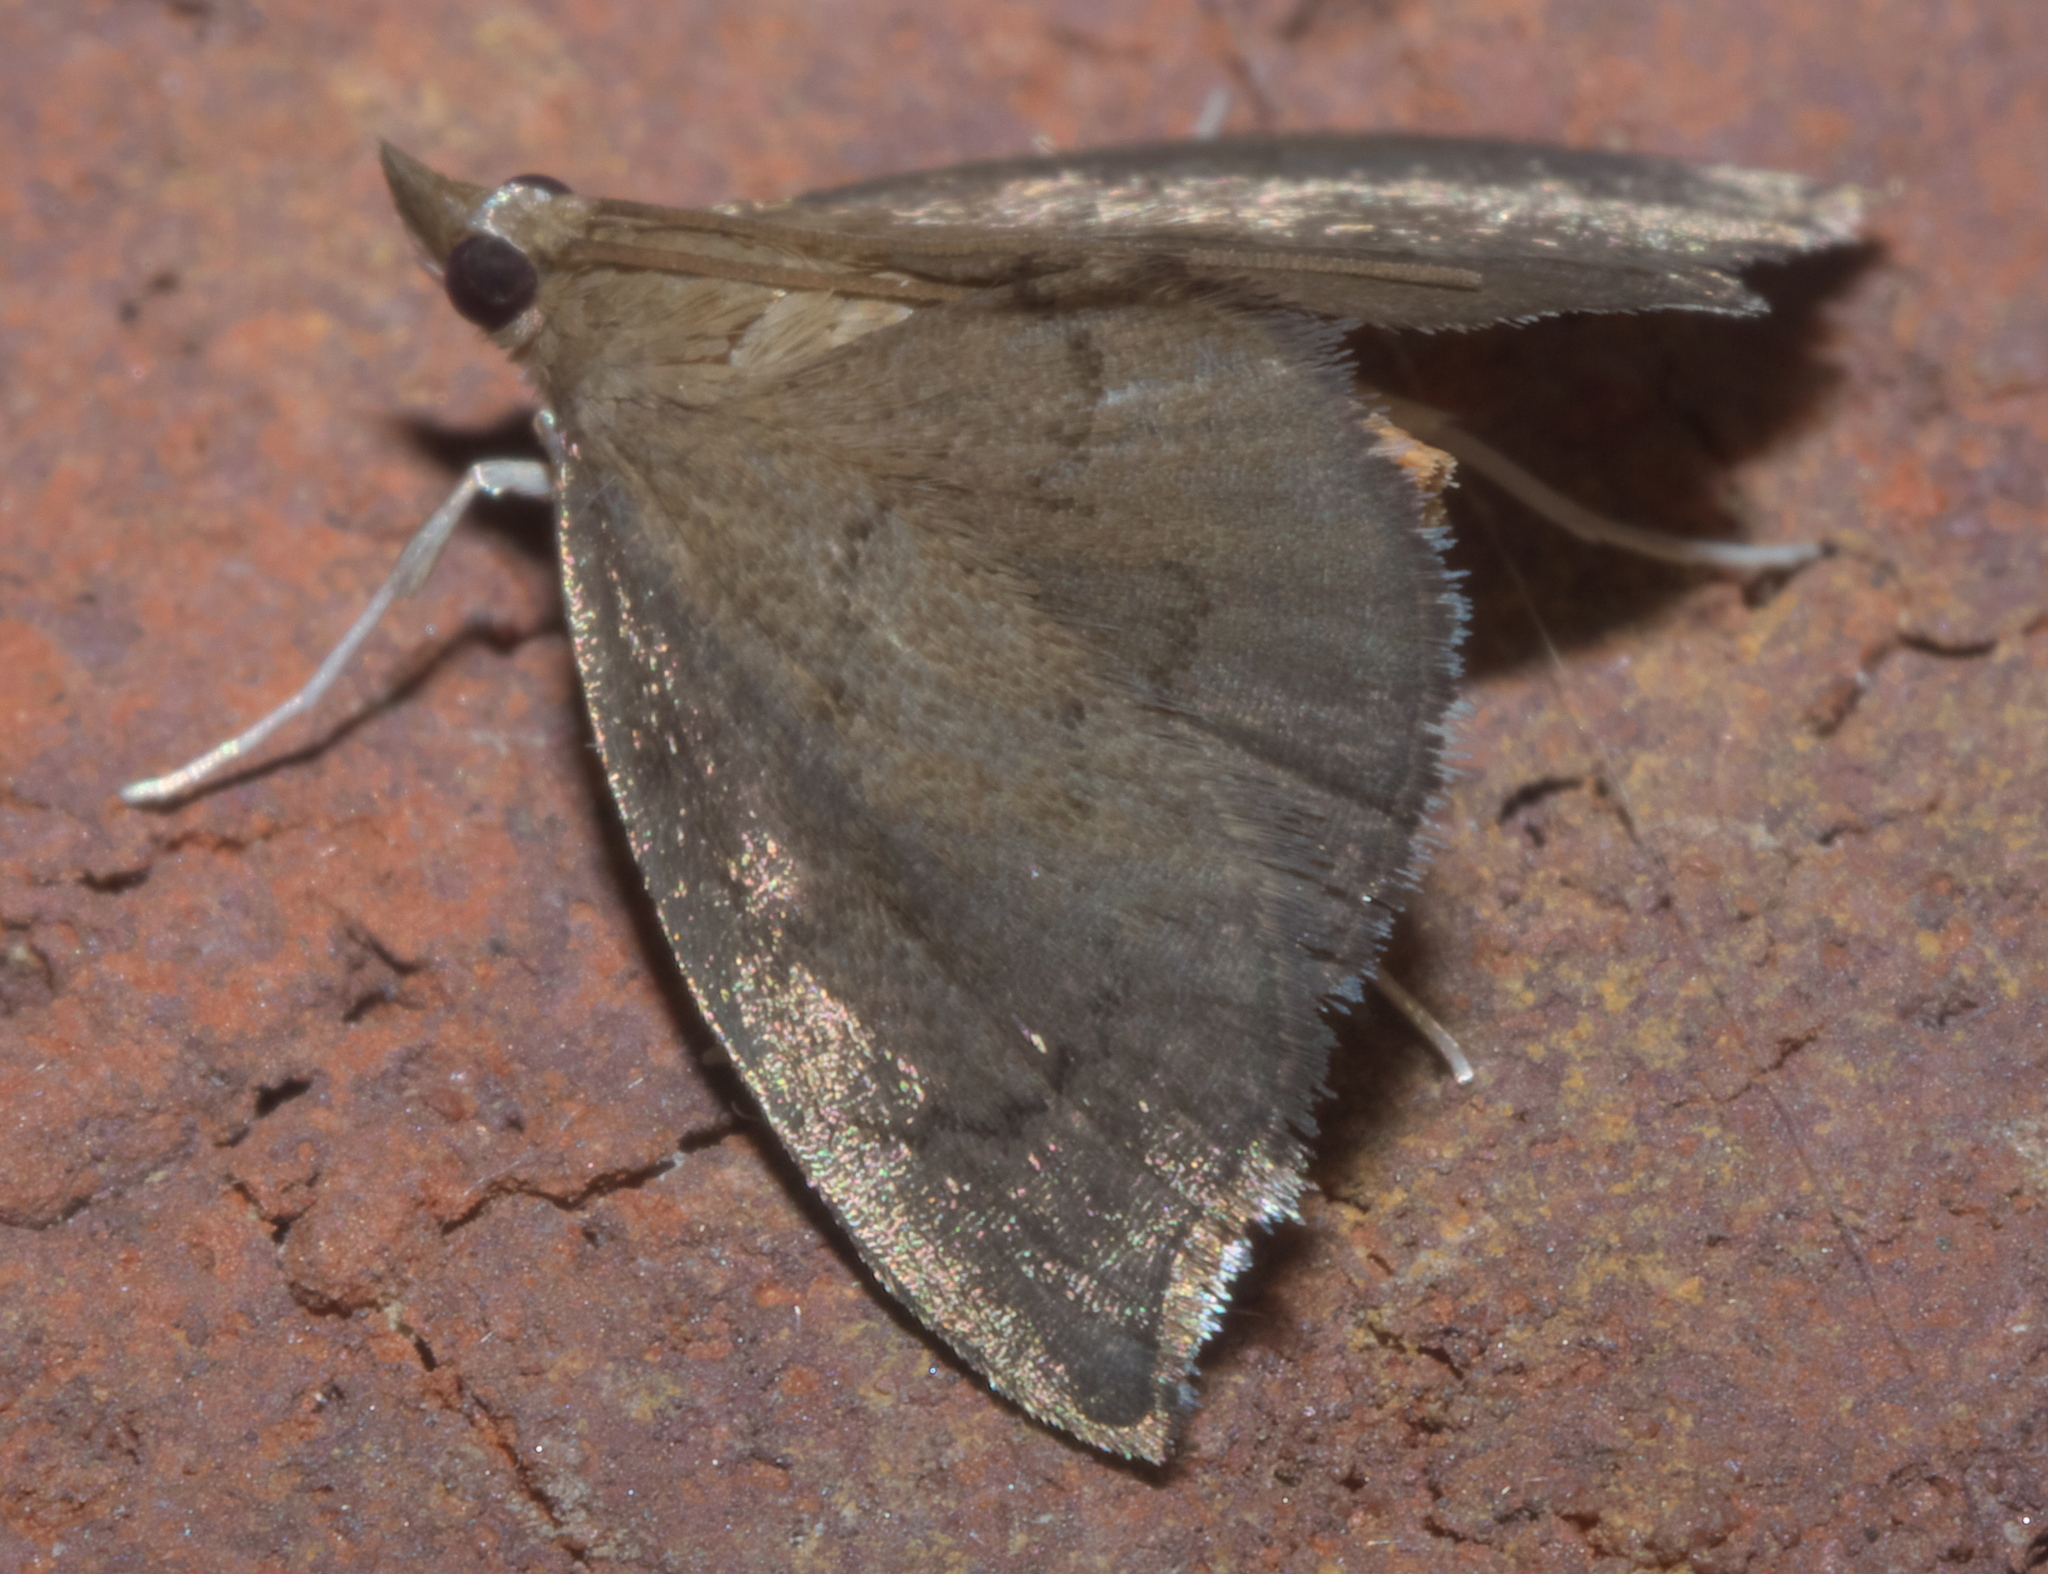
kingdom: Animalia
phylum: Arthropoda
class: Insecta
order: Lepidoptera
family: Crambidae
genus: Perispasta
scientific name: Perispasta caeculalis
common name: Titian peale's moth
